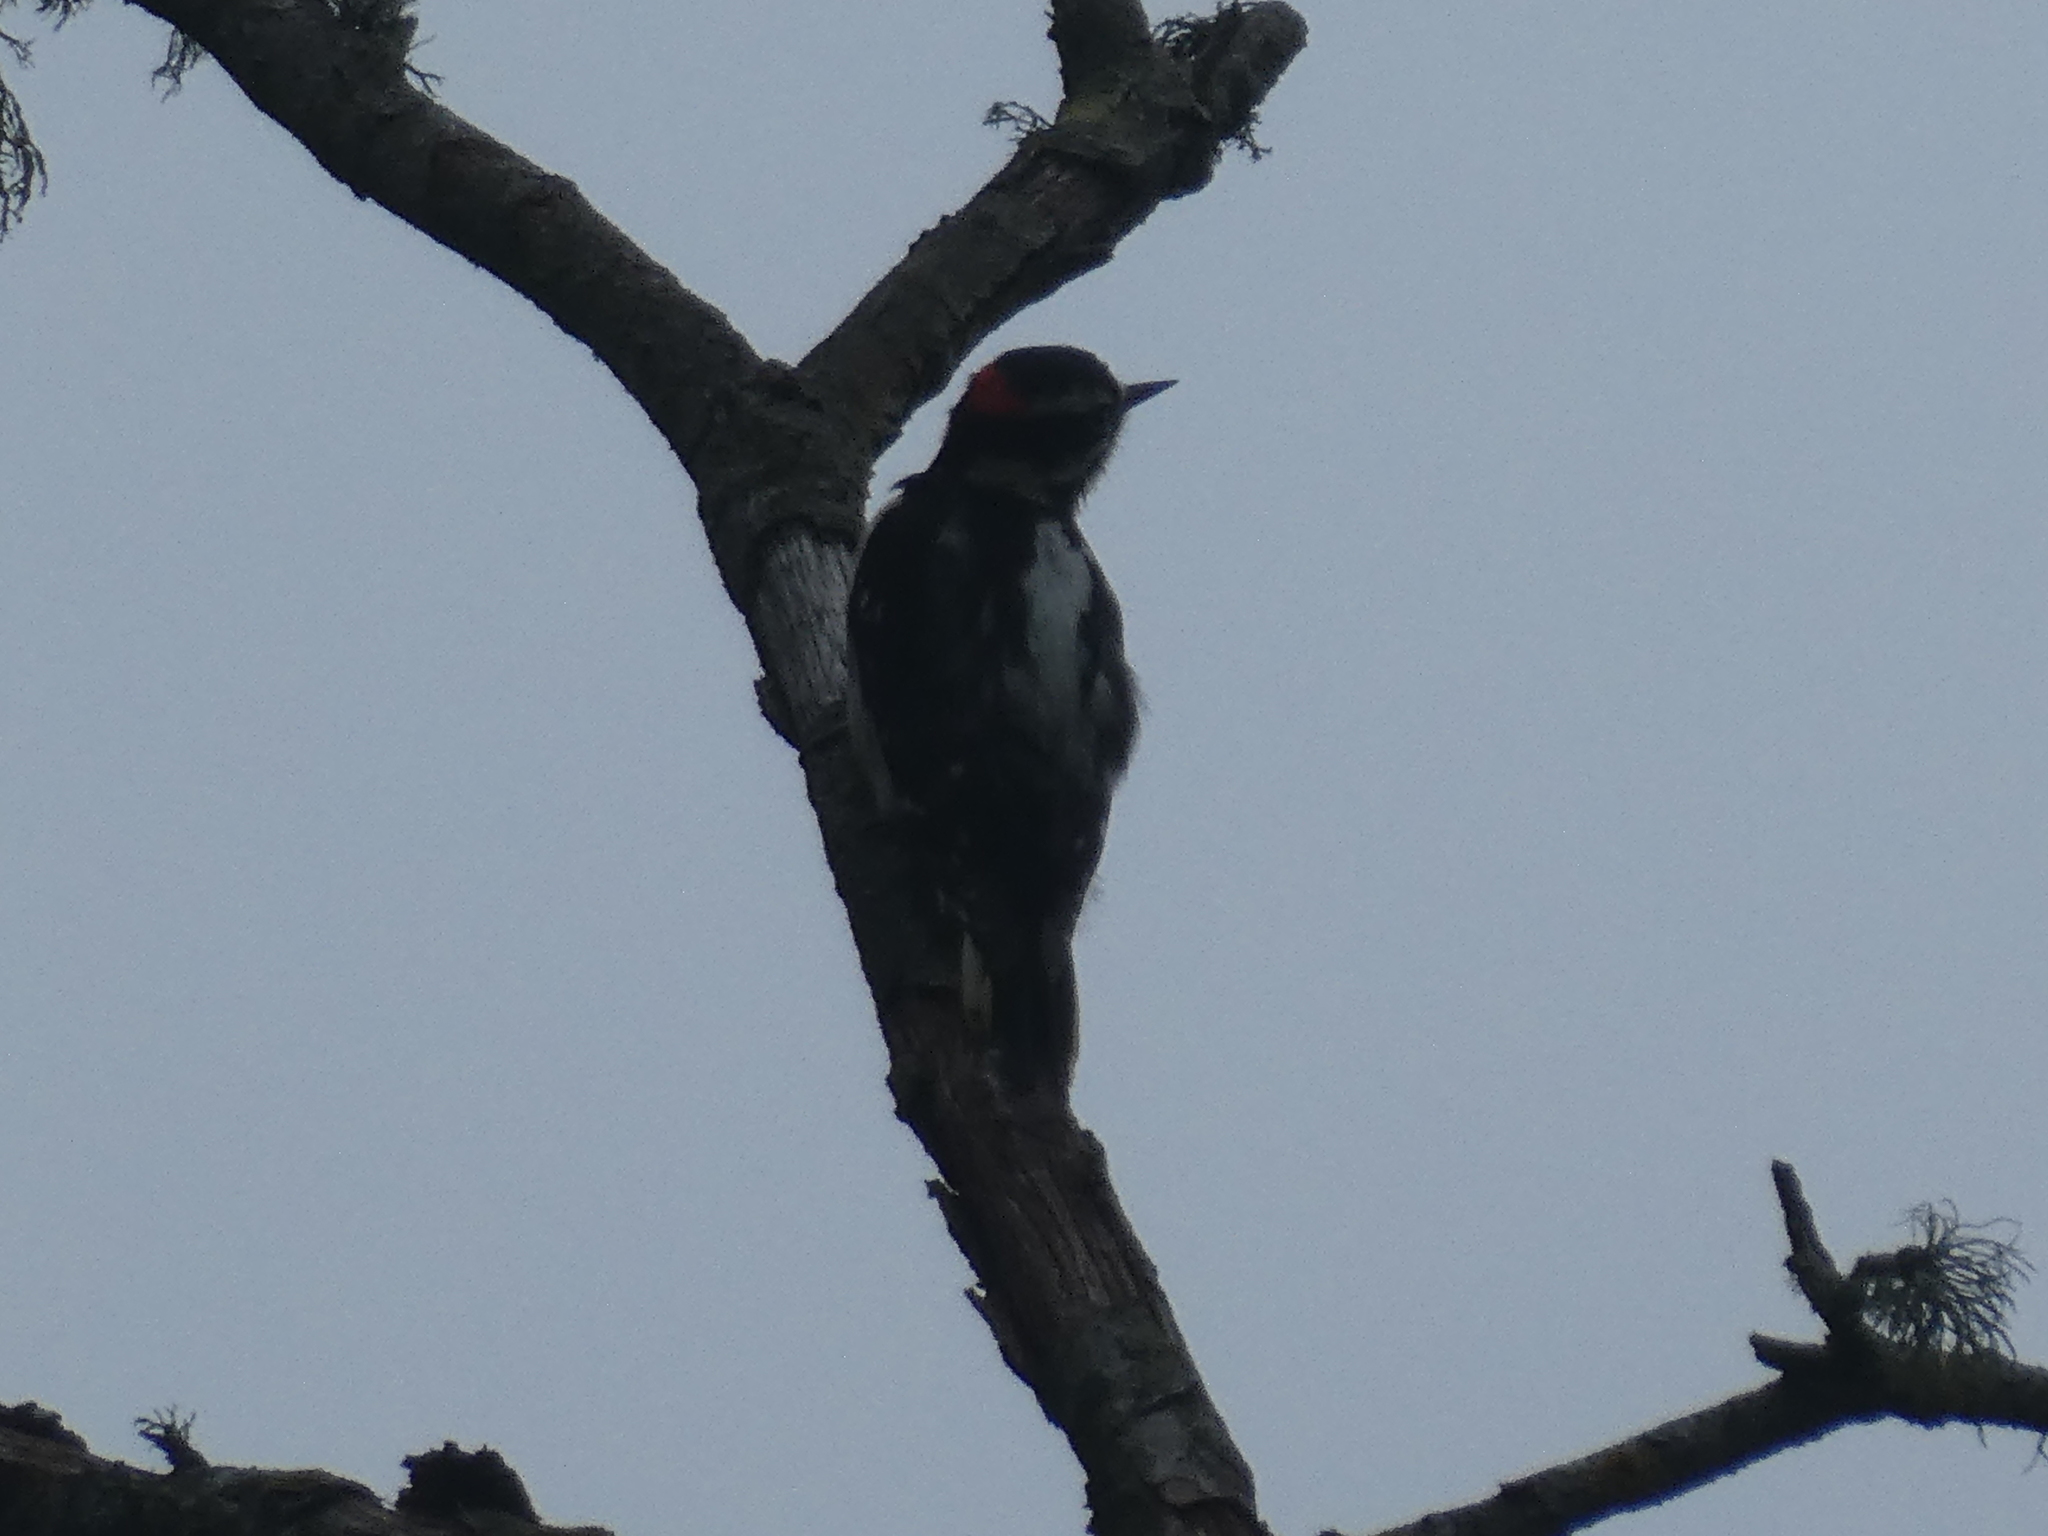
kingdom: Animalia
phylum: Chordata
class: Aves
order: Piciformes
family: Picidae
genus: Dryobates
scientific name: Dryobates pubescens
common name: Downy woodpecker
